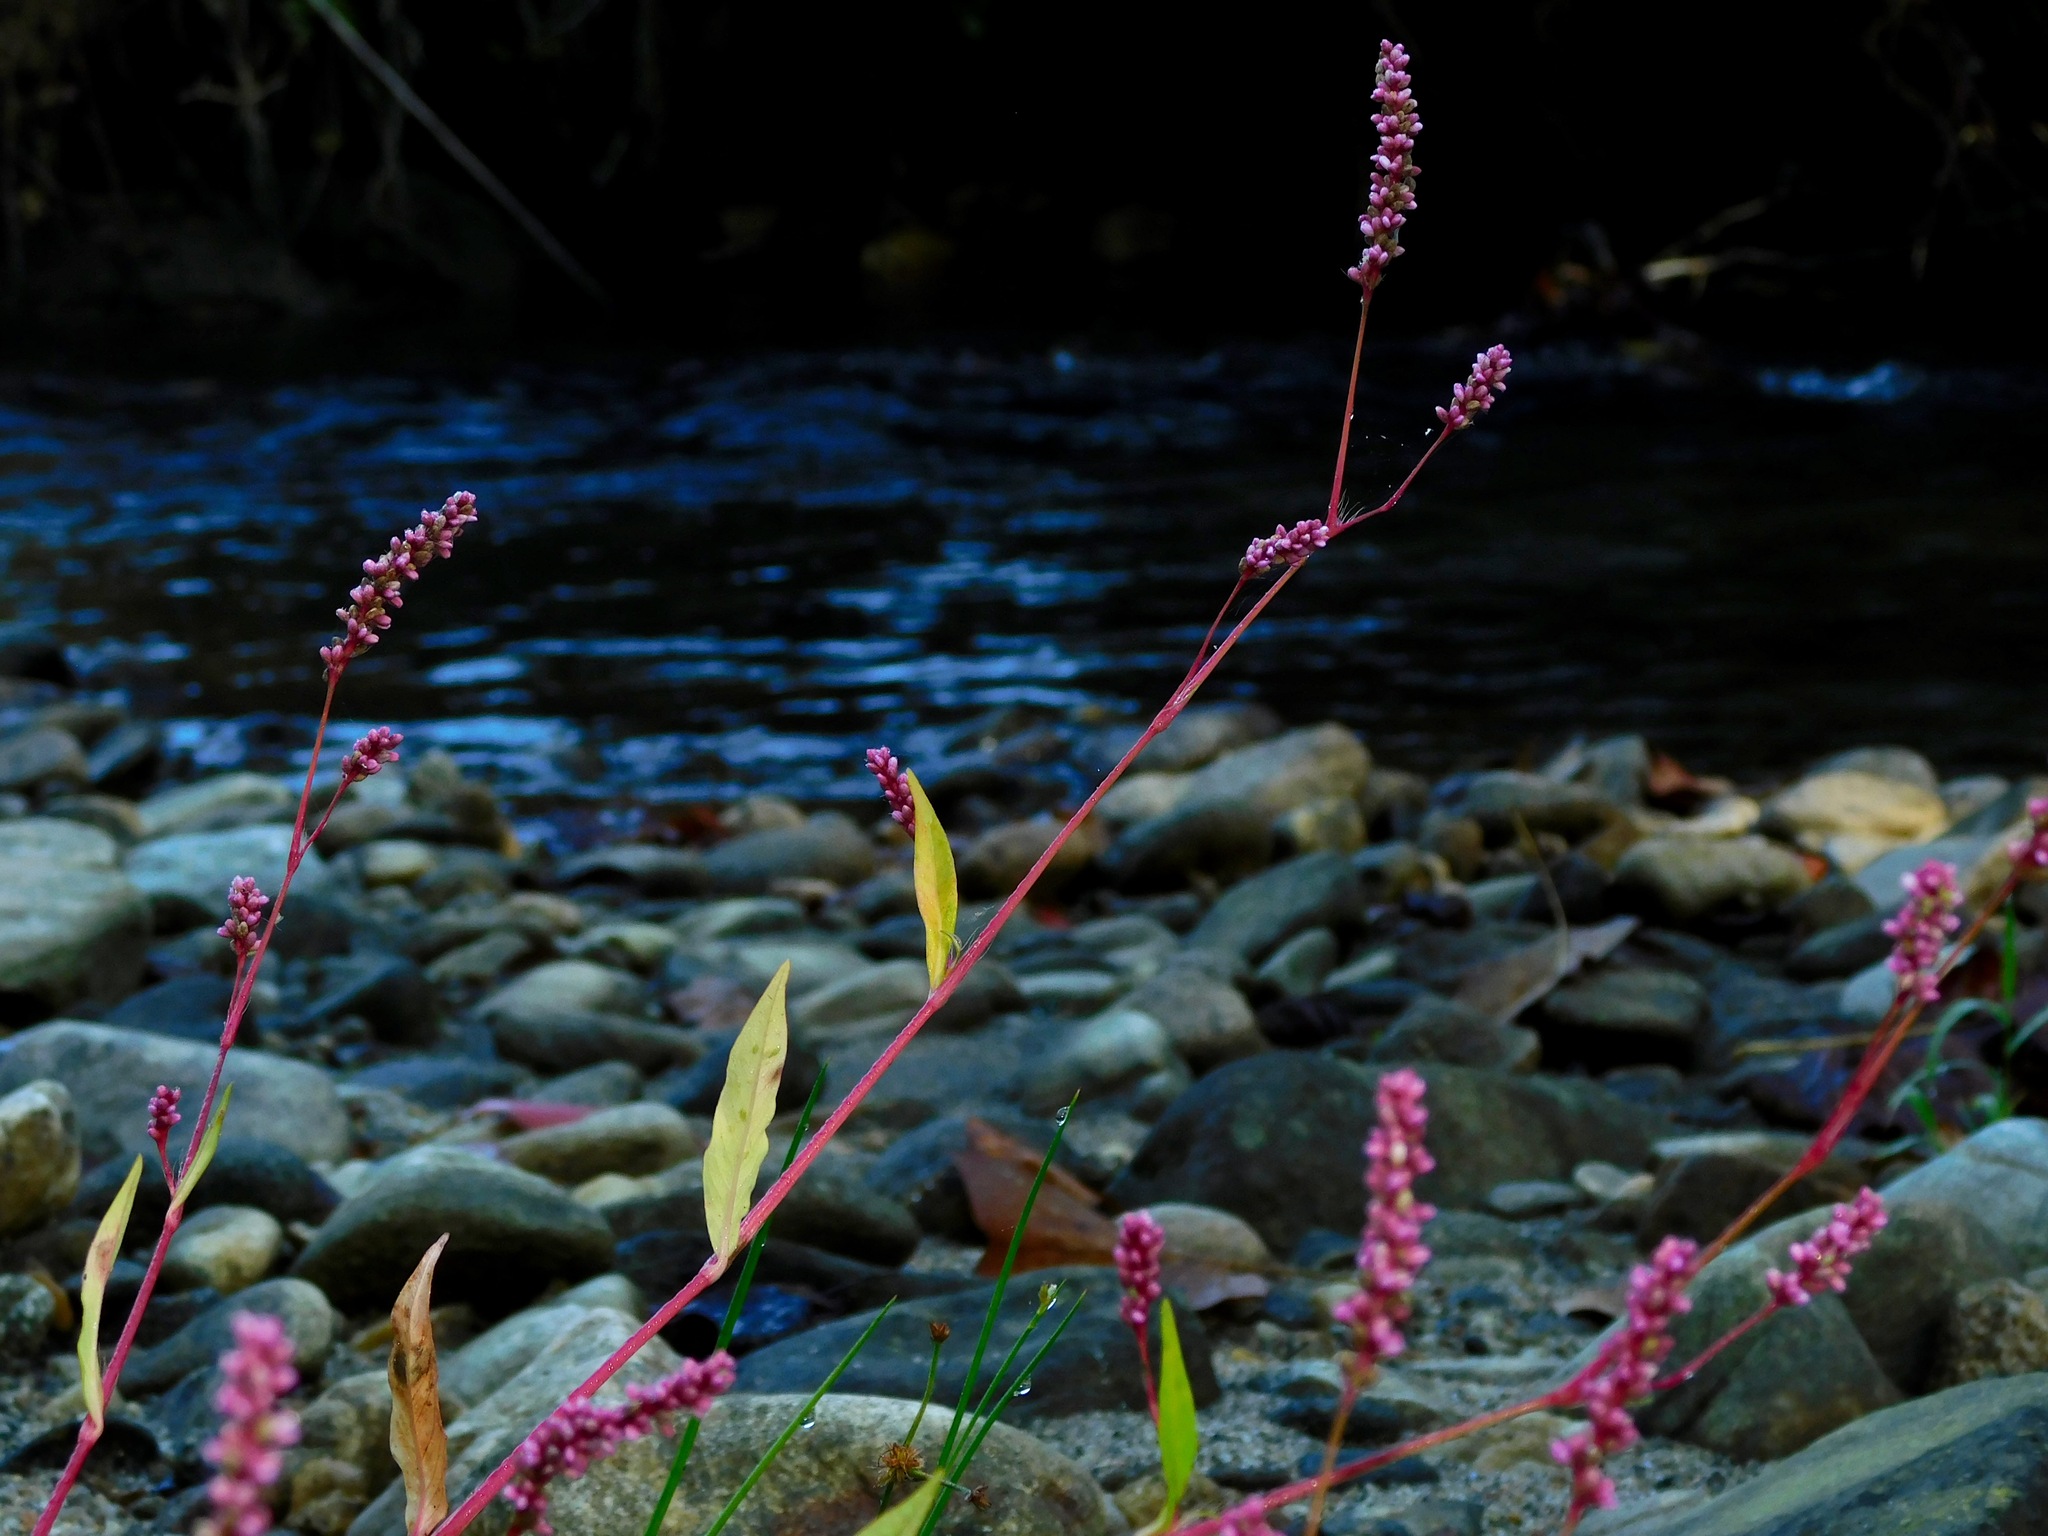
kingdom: Plantae
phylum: Tracheophyta
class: Magnoliopsida
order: Caryophyllales
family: Polygonaceae
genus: Persicaria
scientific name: Persicaria longiseta
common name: Bristly lady's-thumb
